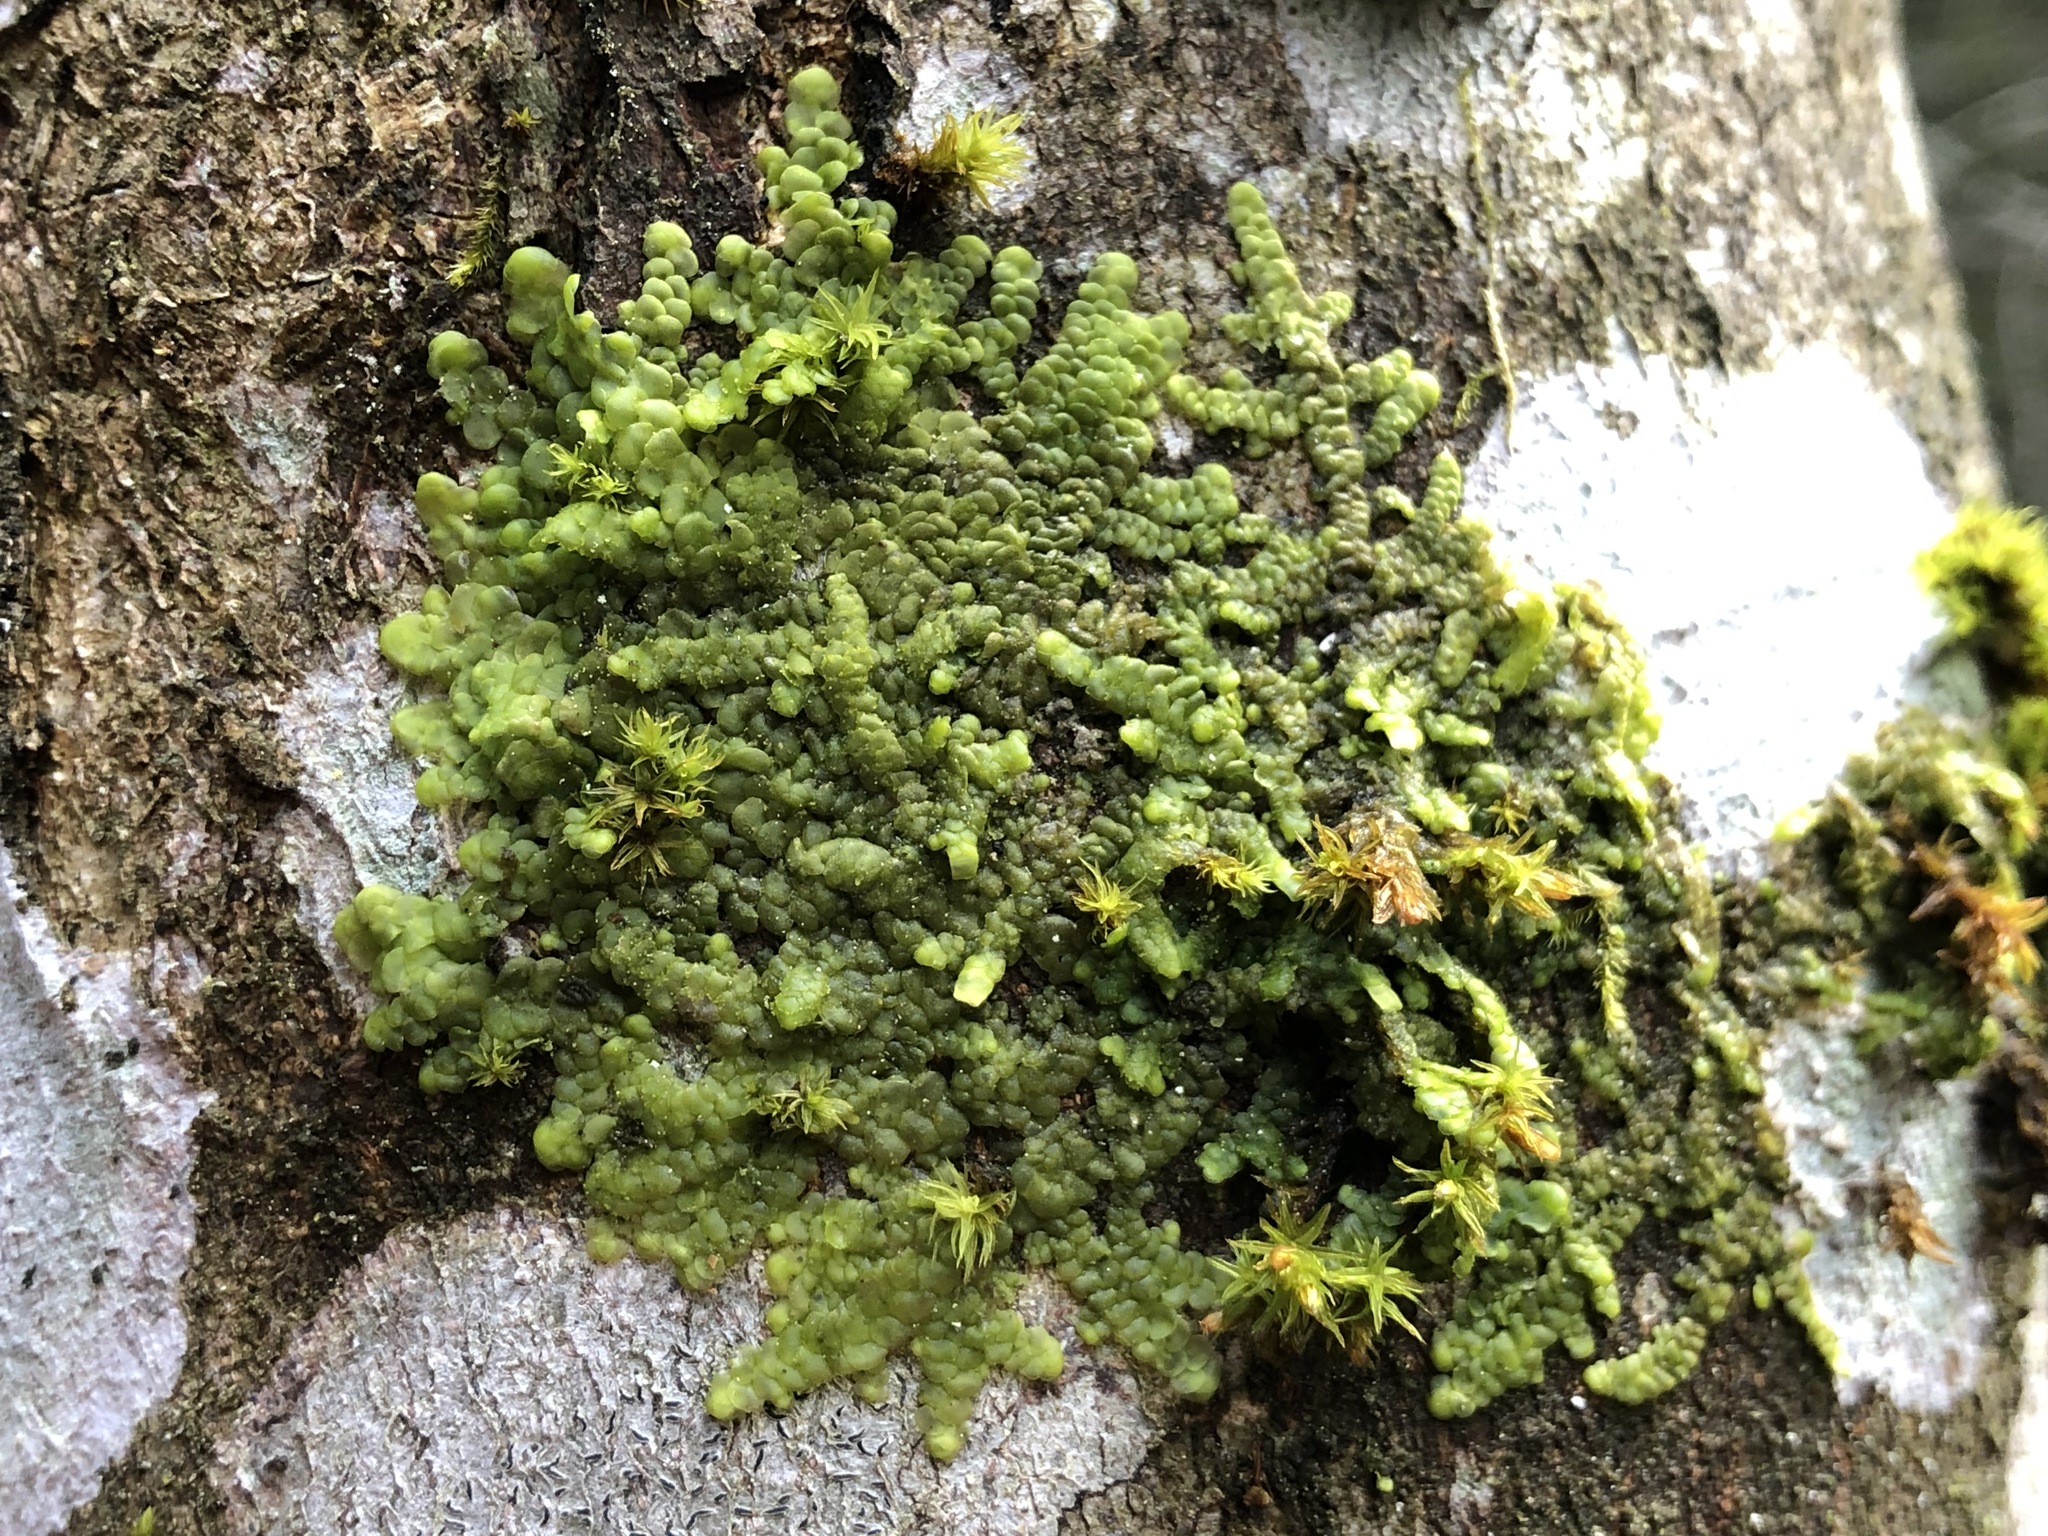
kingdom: Plantae
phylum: Marchantiophyta
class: Jungermanniopsida
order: Porellales
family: Radulaceae
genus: Radula
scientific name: Radula complanata
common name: Flat-leaved scalewort
